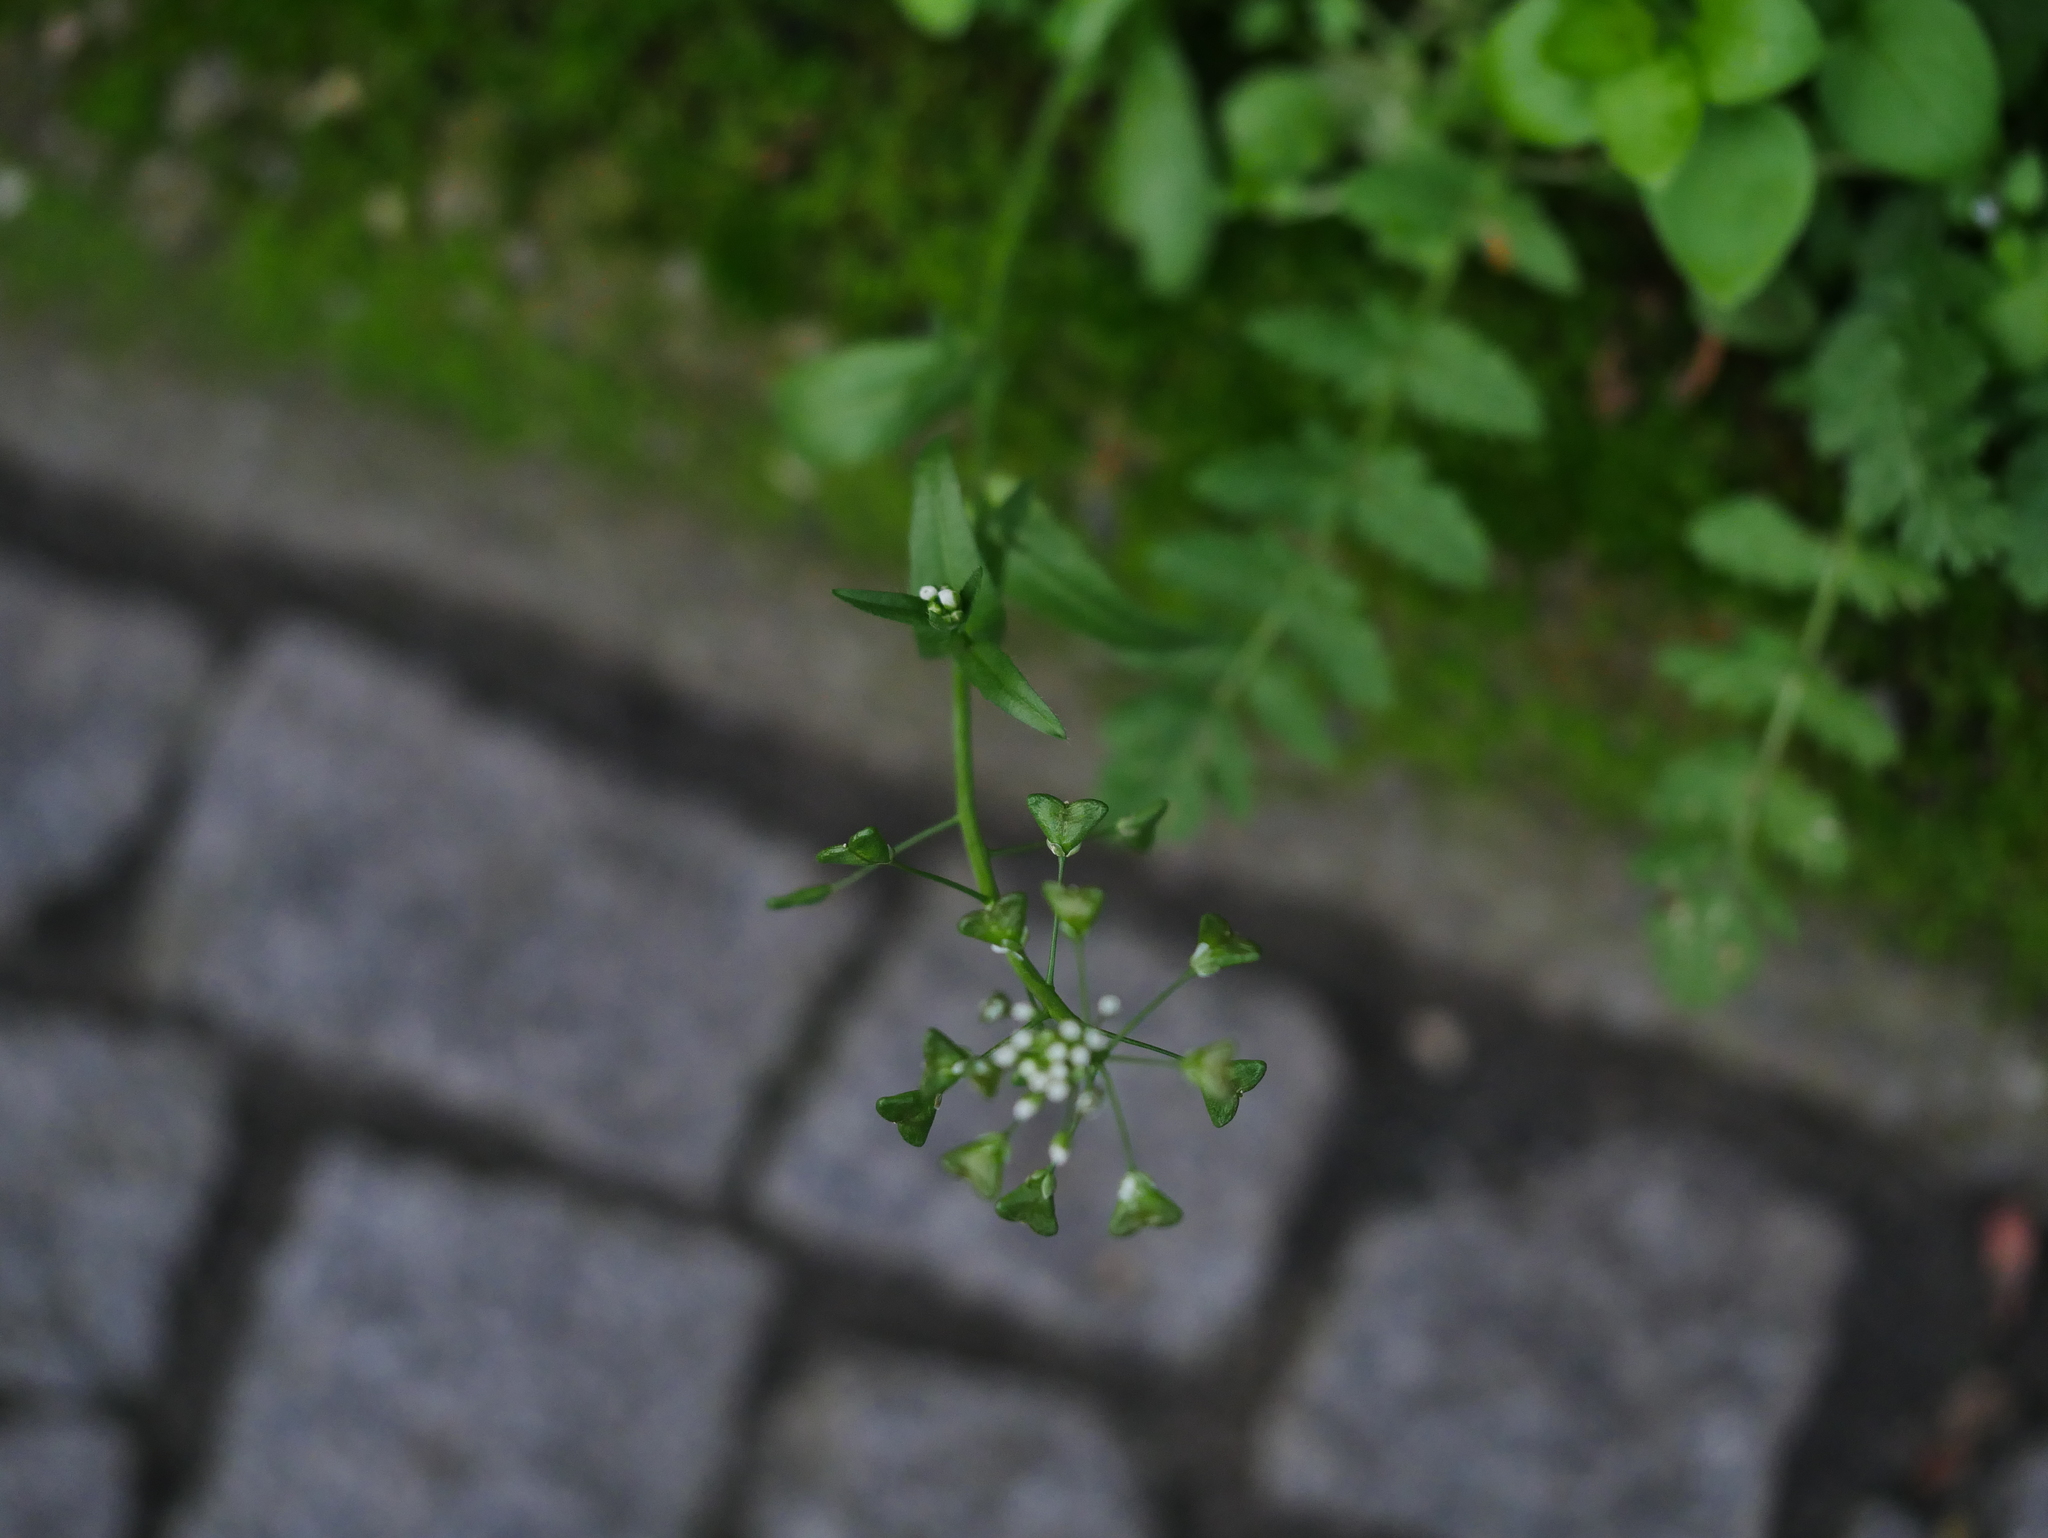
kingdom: Plantae
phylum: Tracheophyta
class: Magnoliopsida
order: Brassicales
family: Brassicaceae
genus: Capsella
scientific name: Capsella bursa-pastoris
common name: Shepherd's purse
